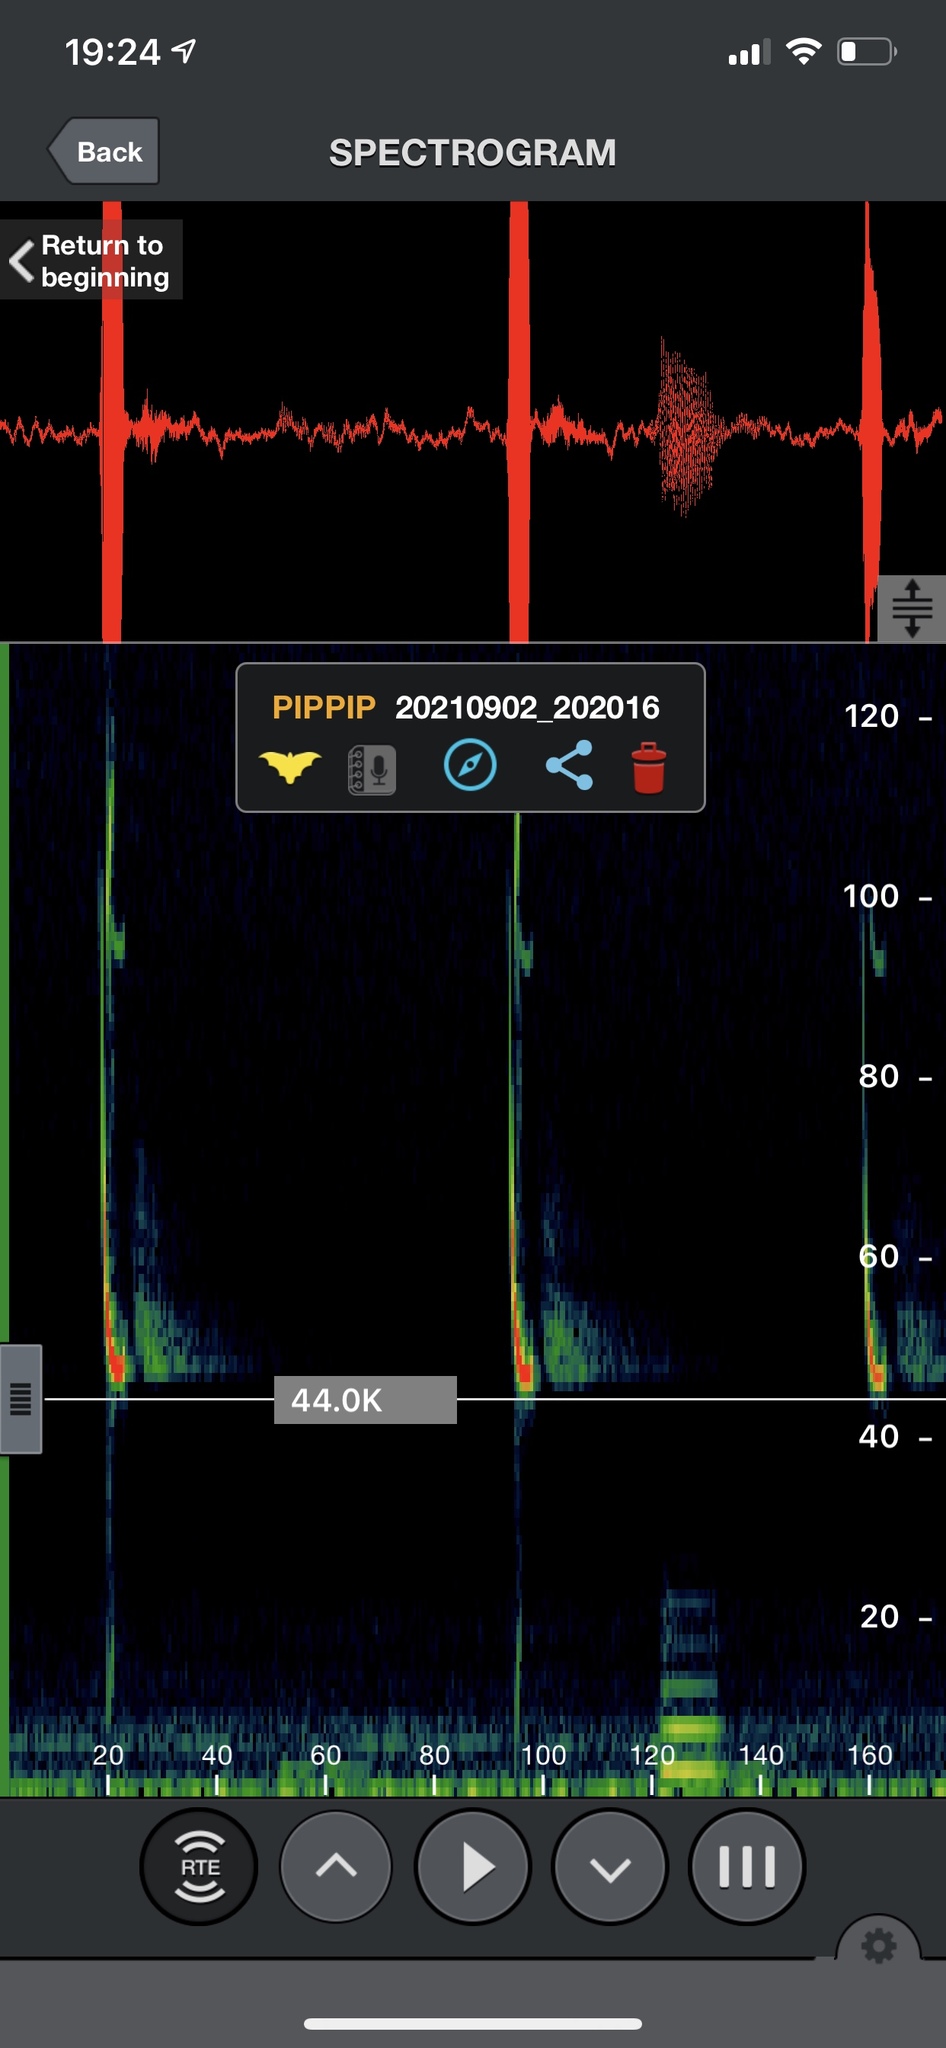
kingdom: Animalia
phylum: Chordata
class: Mammalia
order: Chiroptera
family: Vespertilionidae
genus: Pipistrellus
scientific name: Pipistrellus pipistrellus
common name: Common pipistrelle
